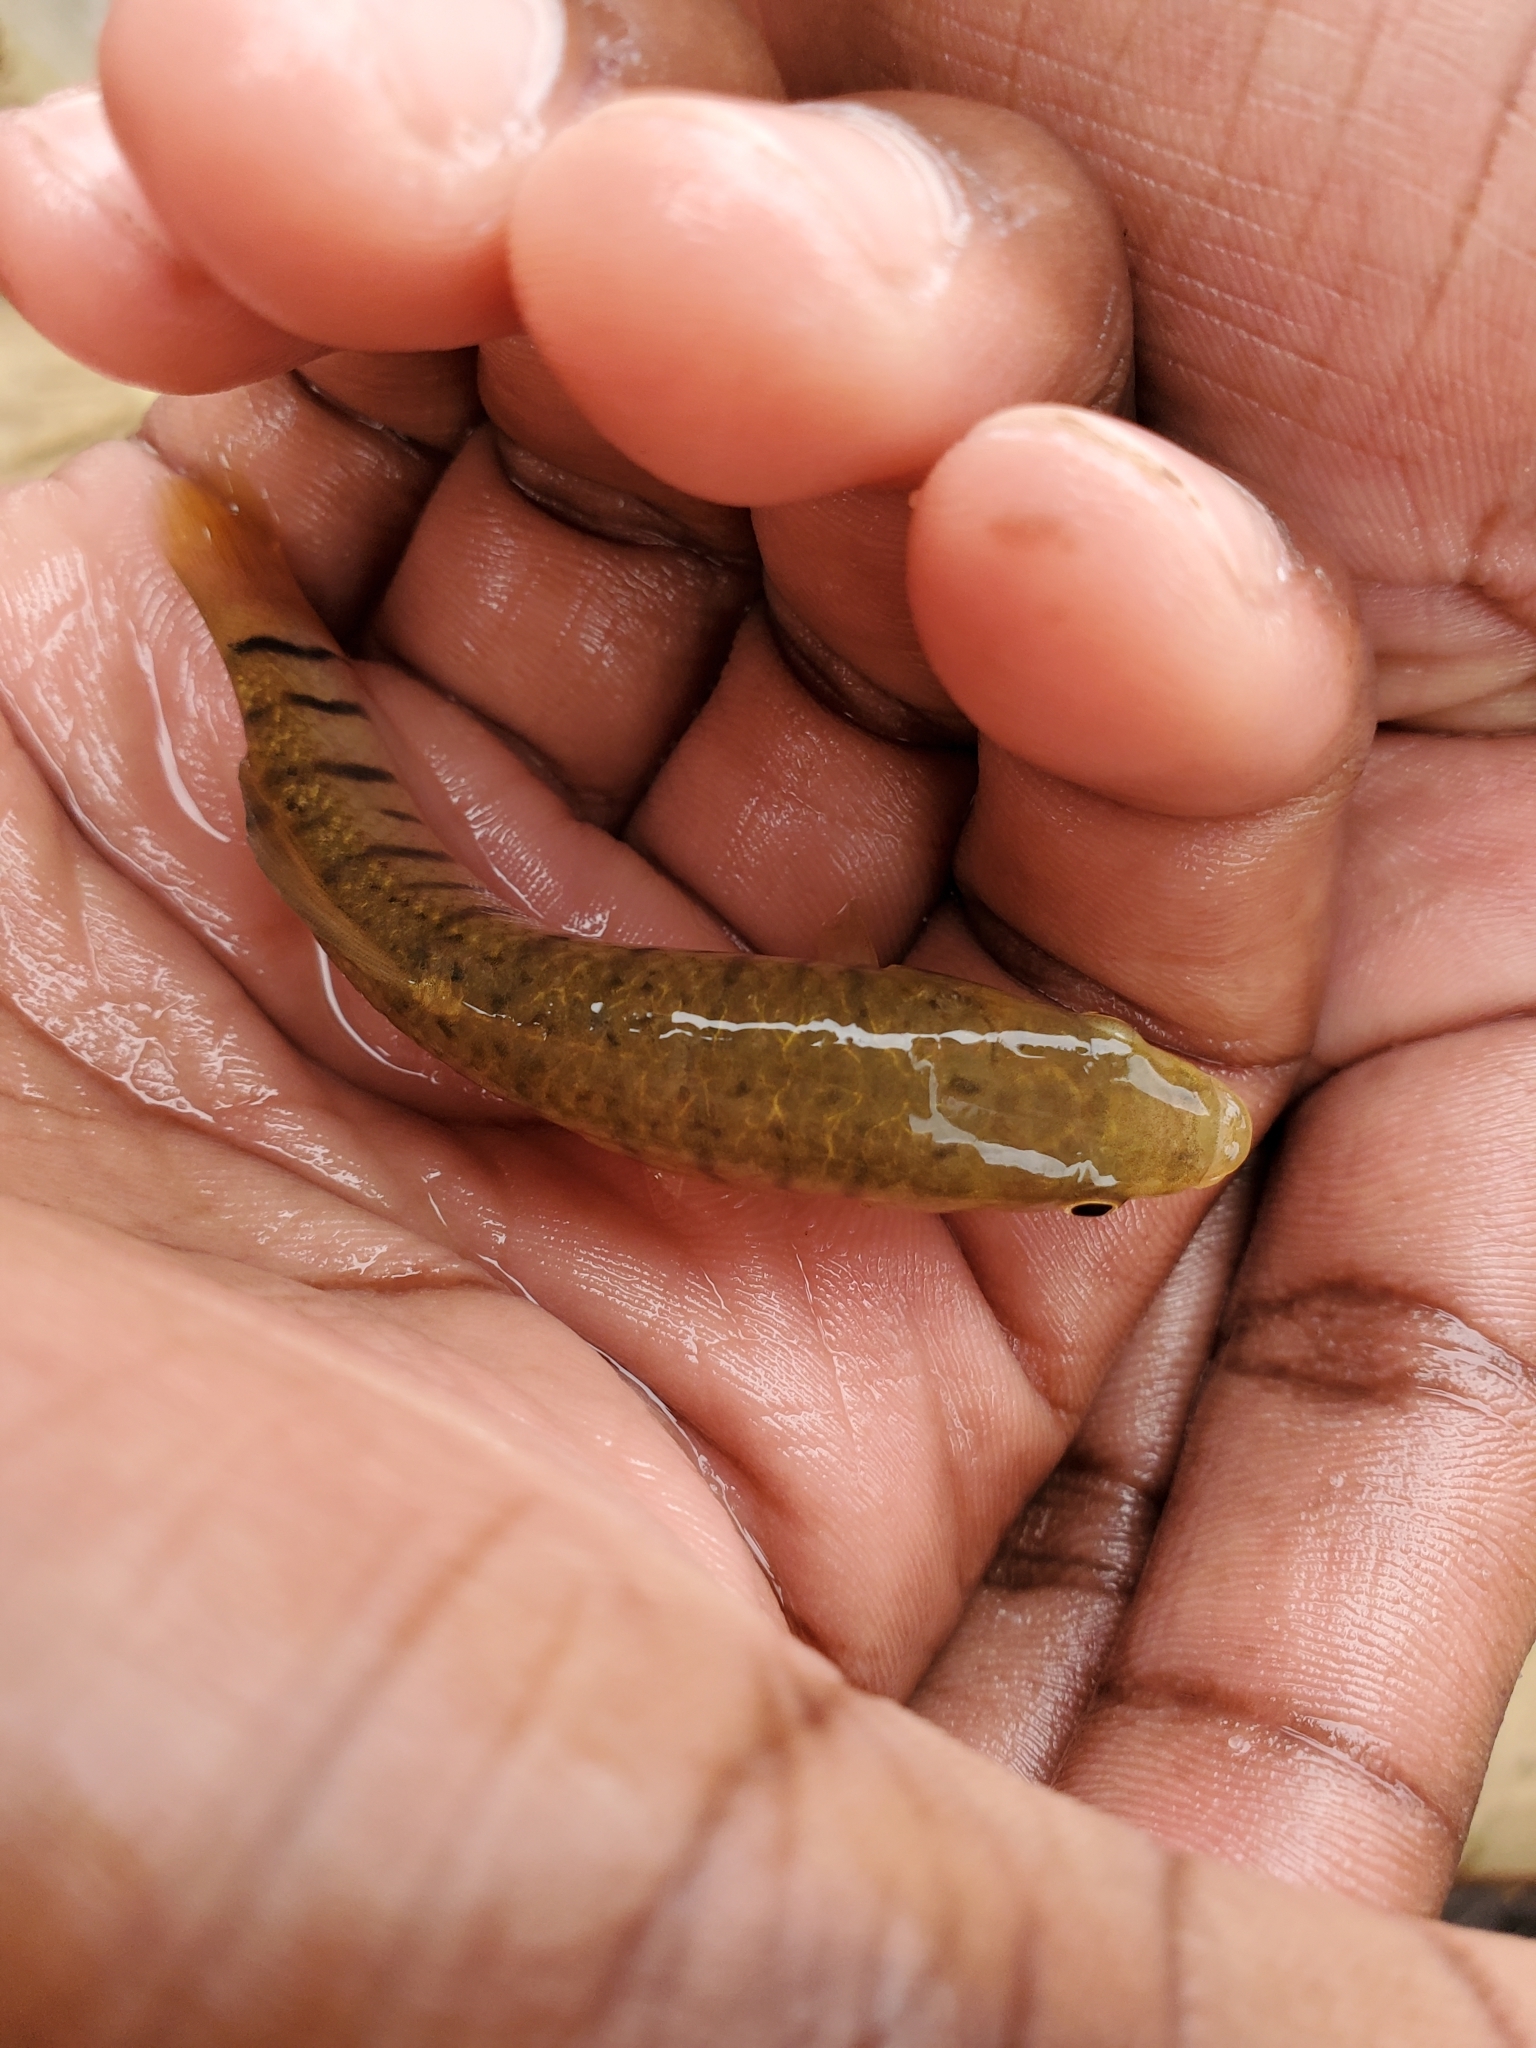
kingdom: Animalia
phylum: Chordata
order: Cyprinodontiformes
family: Fundulidae
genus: Fundulus
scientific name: Fundulus majalis
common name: Striped killifish
